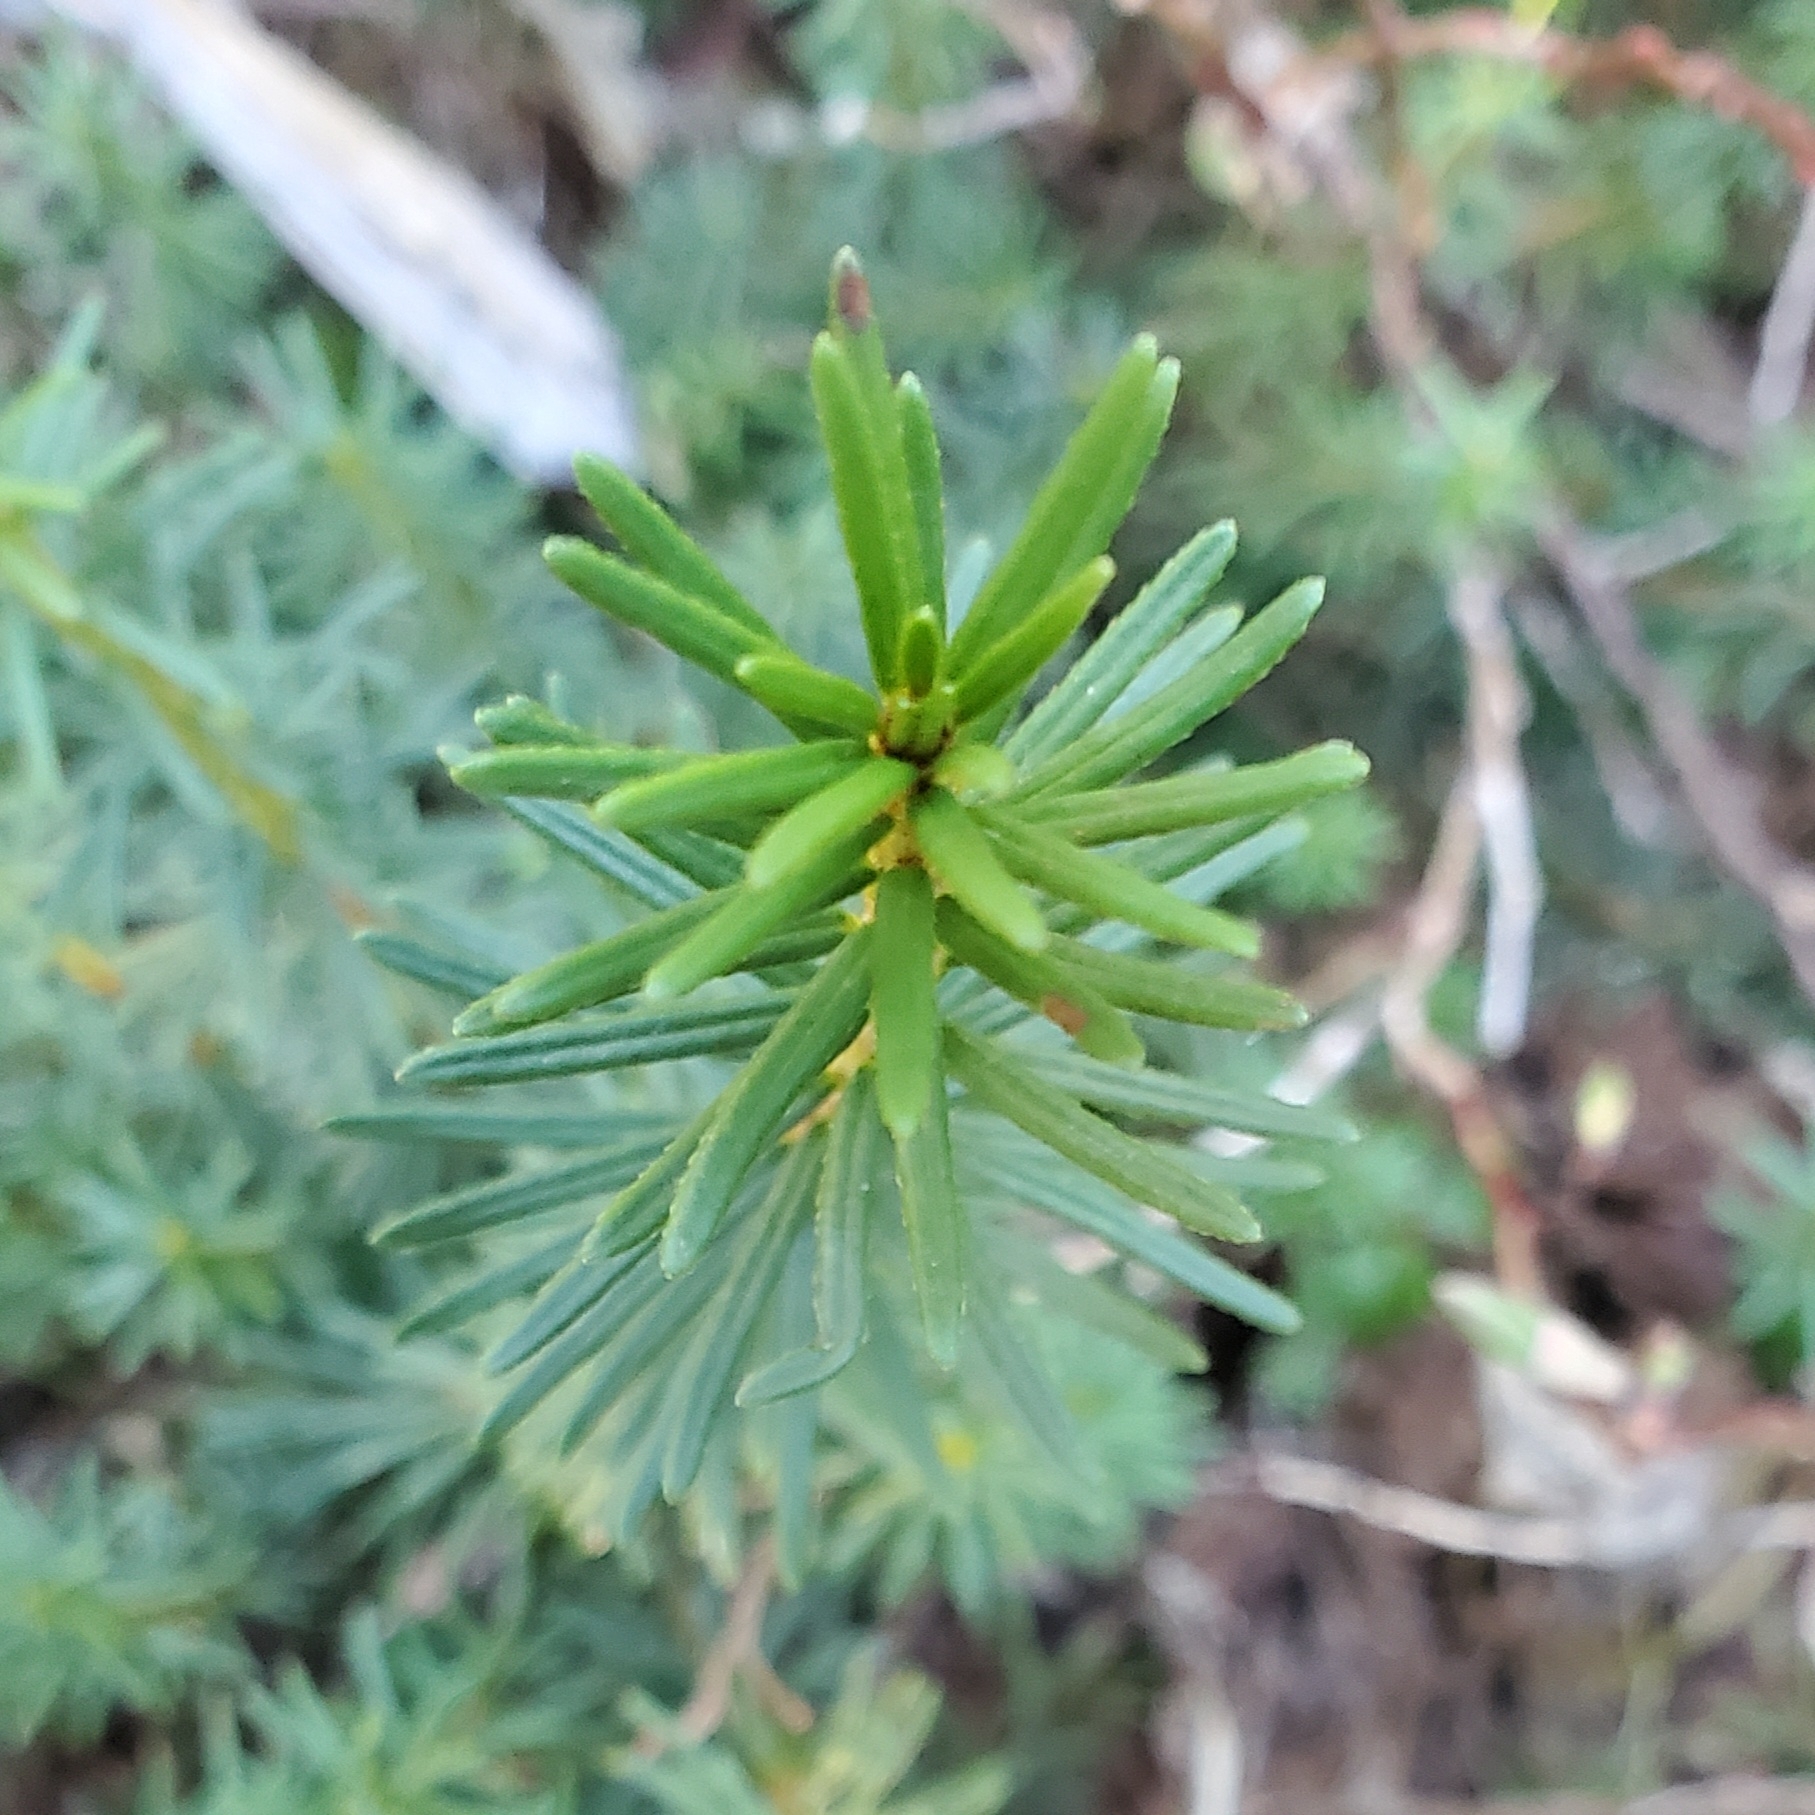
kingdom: Plantae
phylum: Tracheophyta
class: Magnoliopsida
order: Ericales
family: Ericaceae
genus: Phyllodoce
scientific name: Phyllodoce empetriformis
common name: Pink mountain heather
